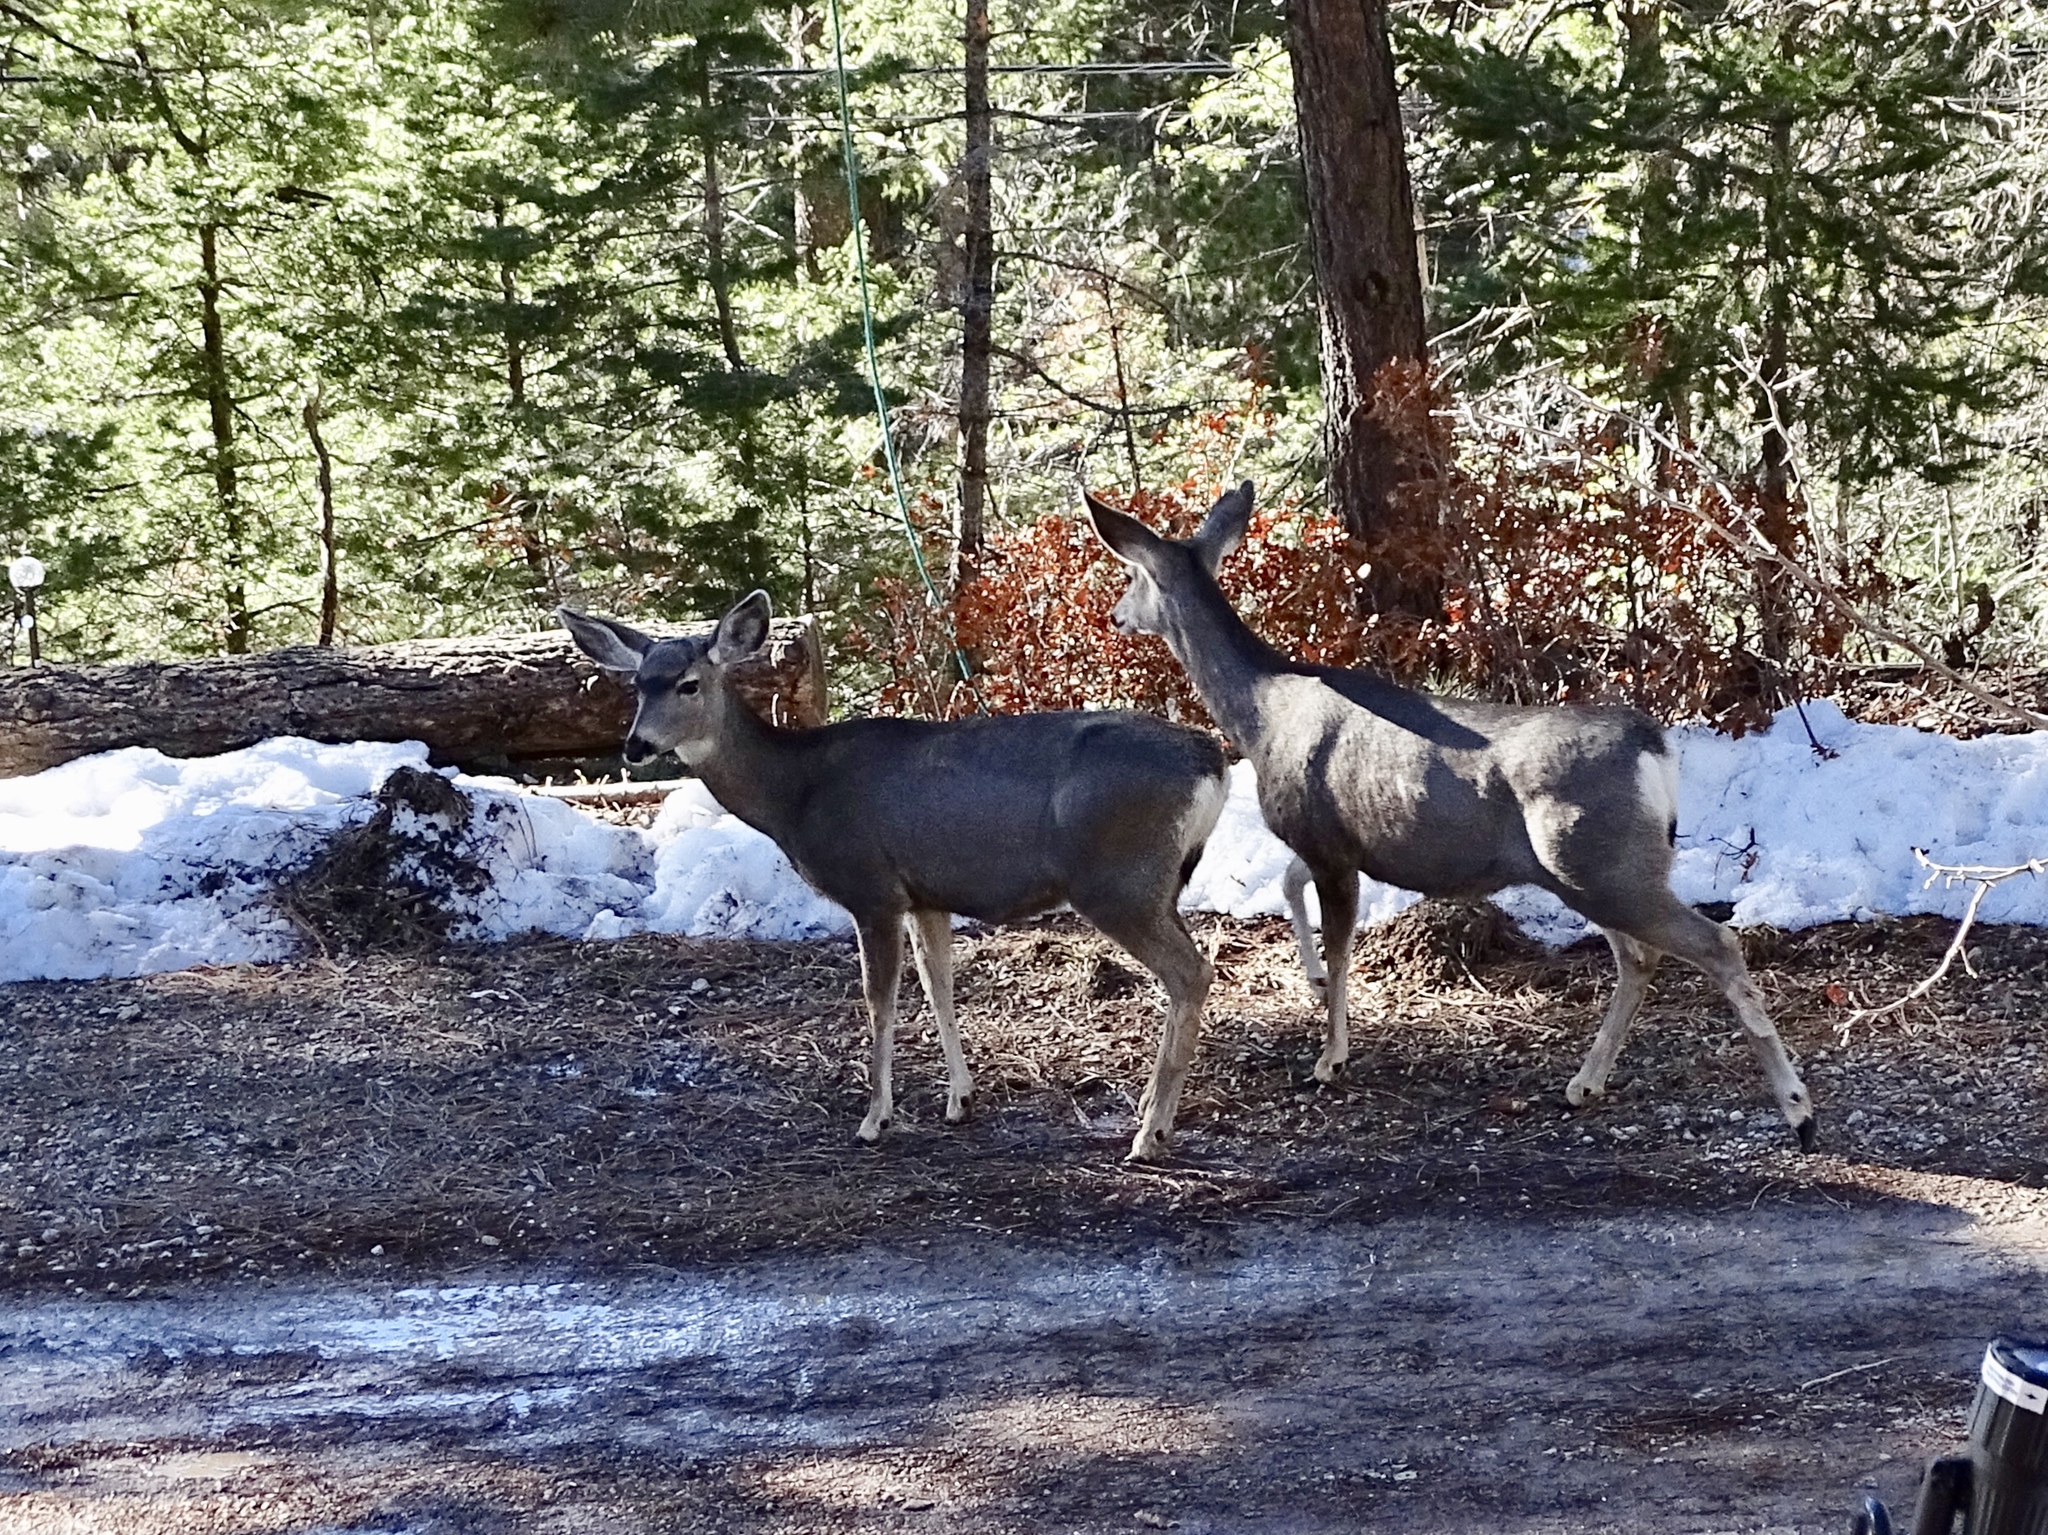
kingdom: Animalia
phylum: Chordata
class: Mammalia
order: Artiodactyla
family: Cervidae
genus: Odocoileus
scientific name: Odocoileus hemionus
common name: Mule deer
